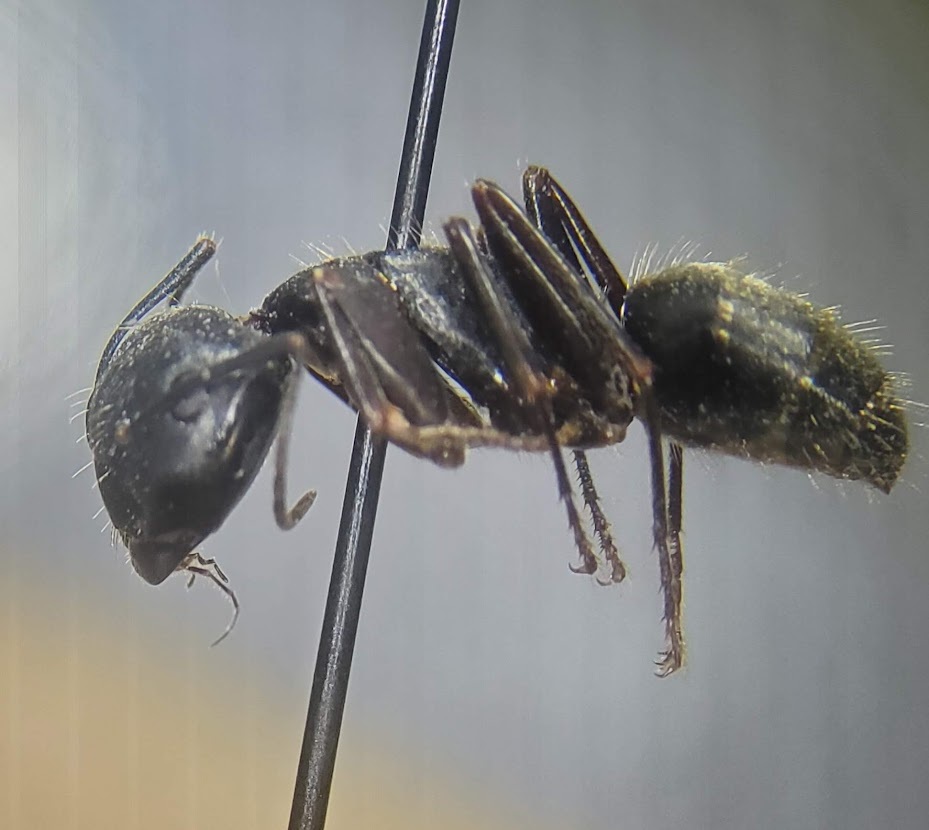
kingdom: Animalia
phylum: Arthropoda
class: Insecta
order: Hymenoptera
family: Formicidae
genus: Camponotus
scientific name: Camponotus pennsylvanicus
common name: Black carpenter ant
